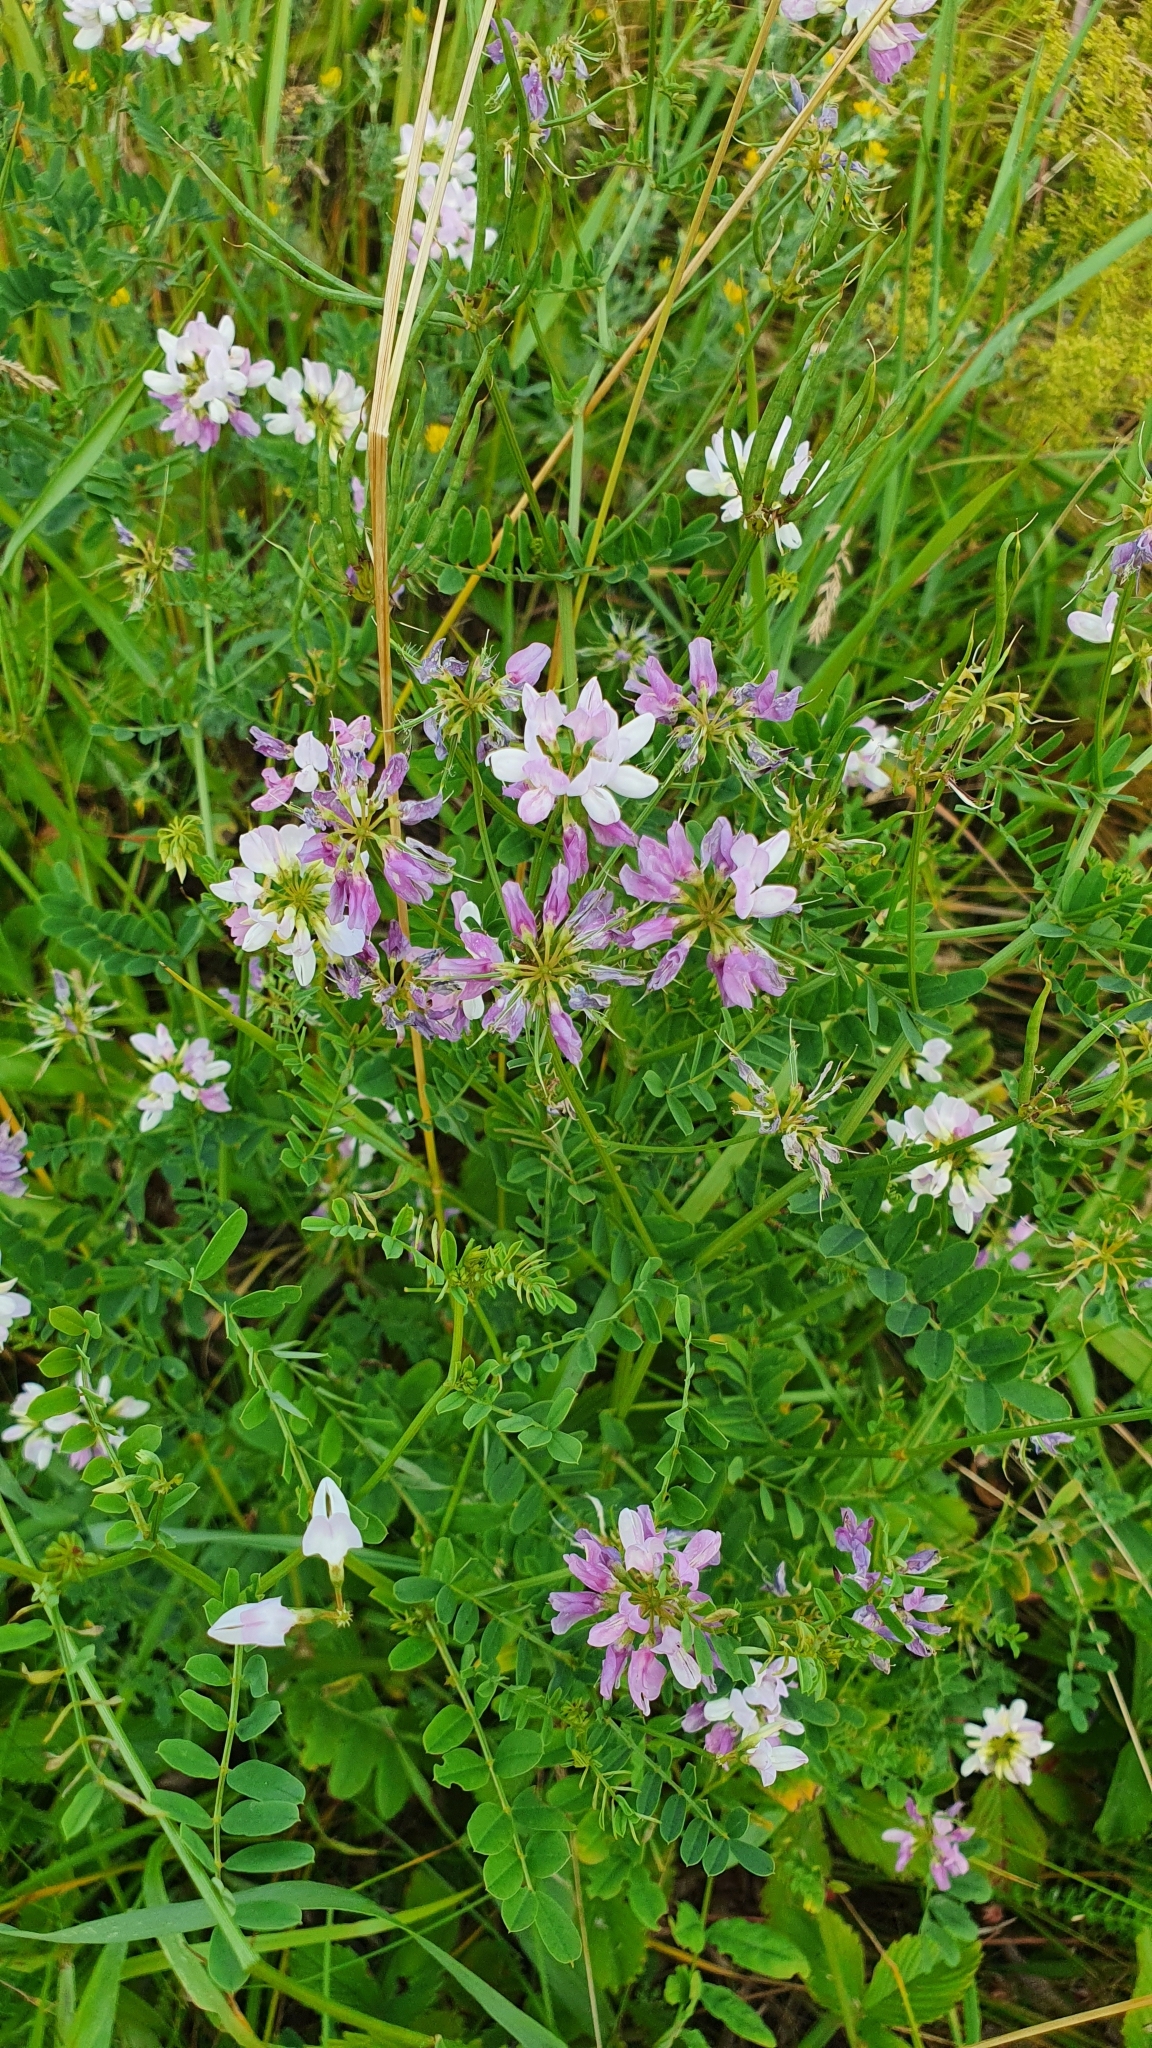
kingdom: Plantae
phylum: Tracheophyta
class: Magnoliopsida
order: Fabales
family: Fabaceae
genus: Coronilla
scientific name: Coronilla varia
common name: Crownvetch
